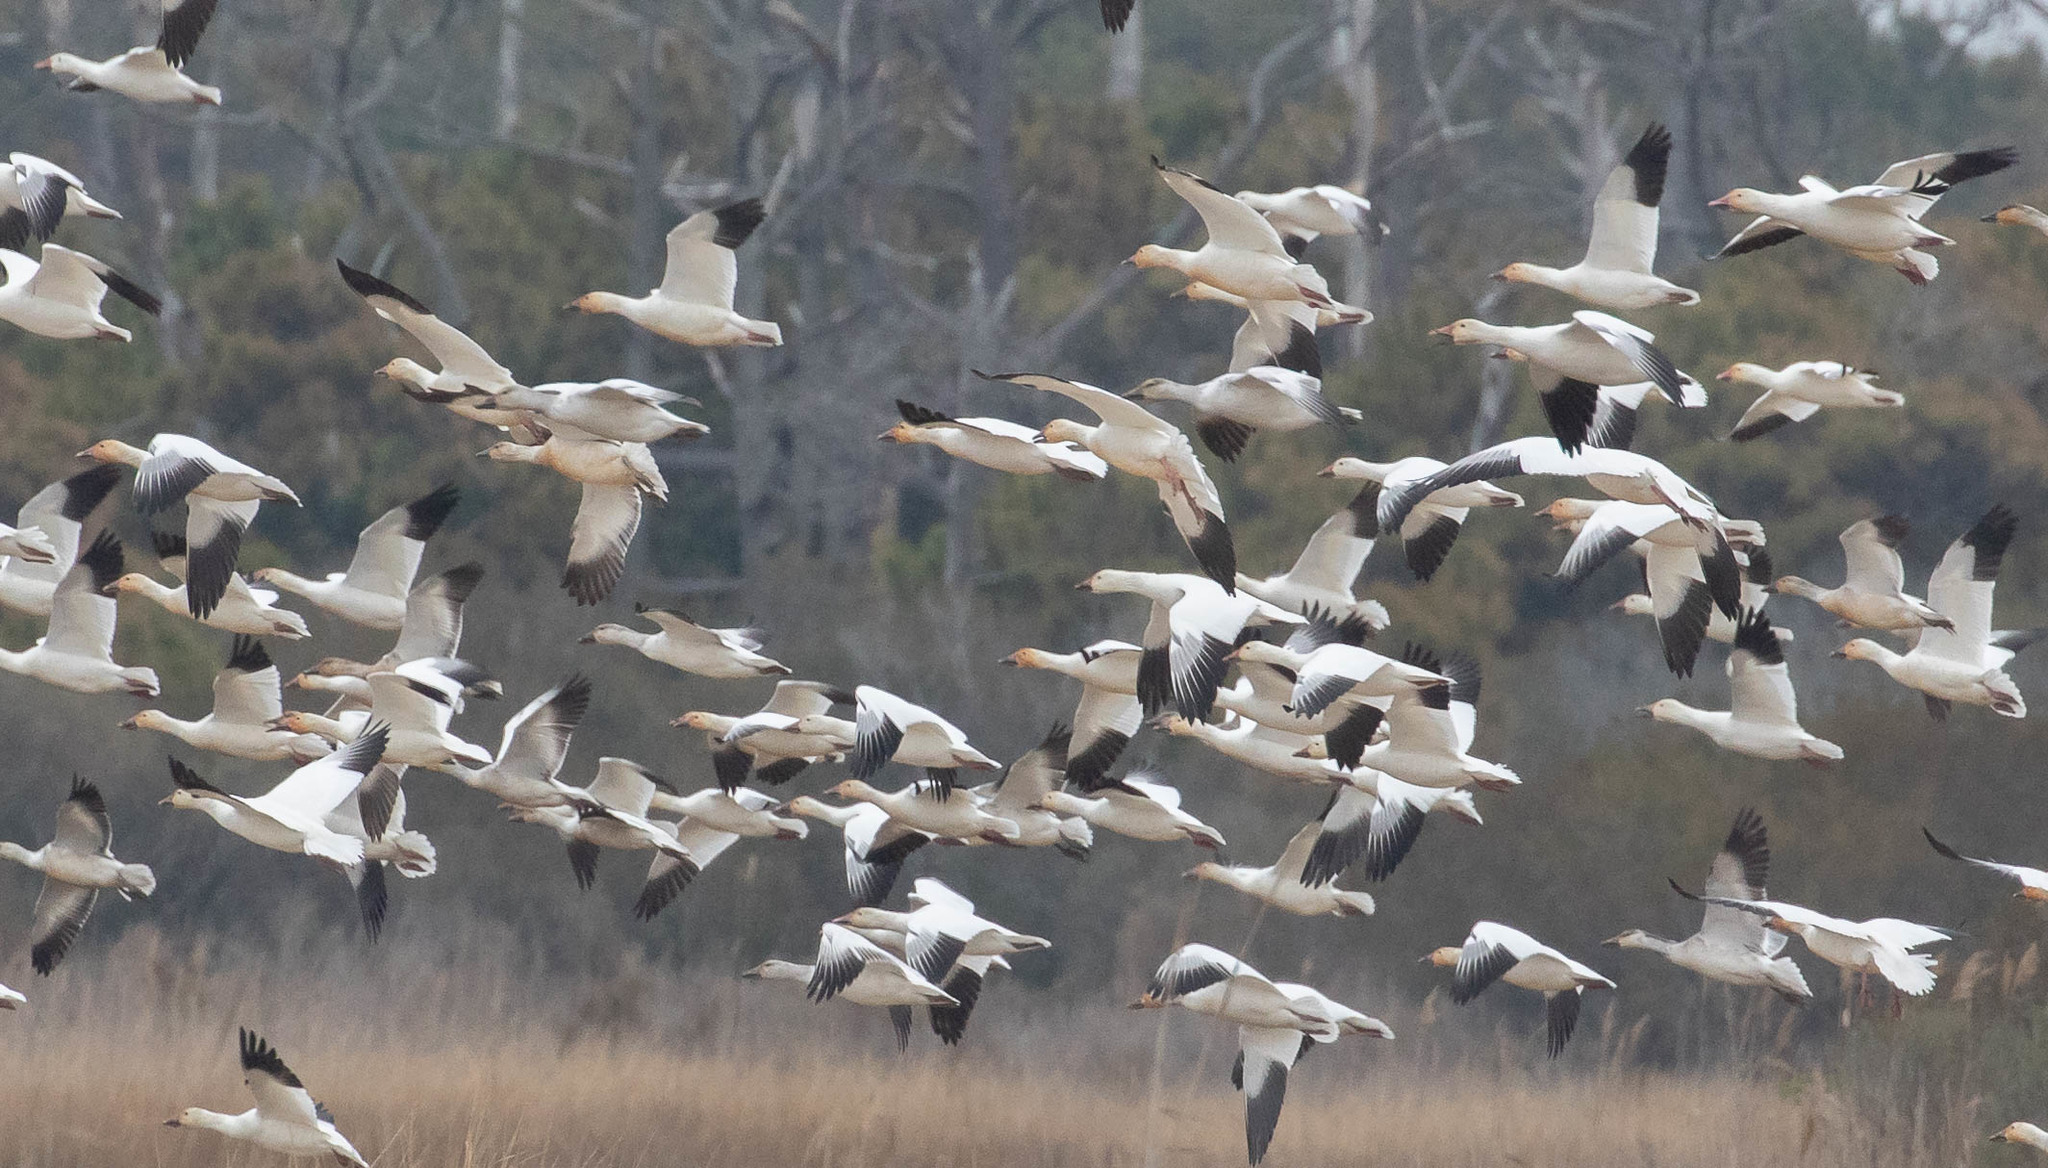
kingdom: Animalia
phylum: Chordata
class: Aves
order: Anseriformes
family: Anatidae
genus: Anser
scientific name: Anser caerulescens
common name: Snow goose
